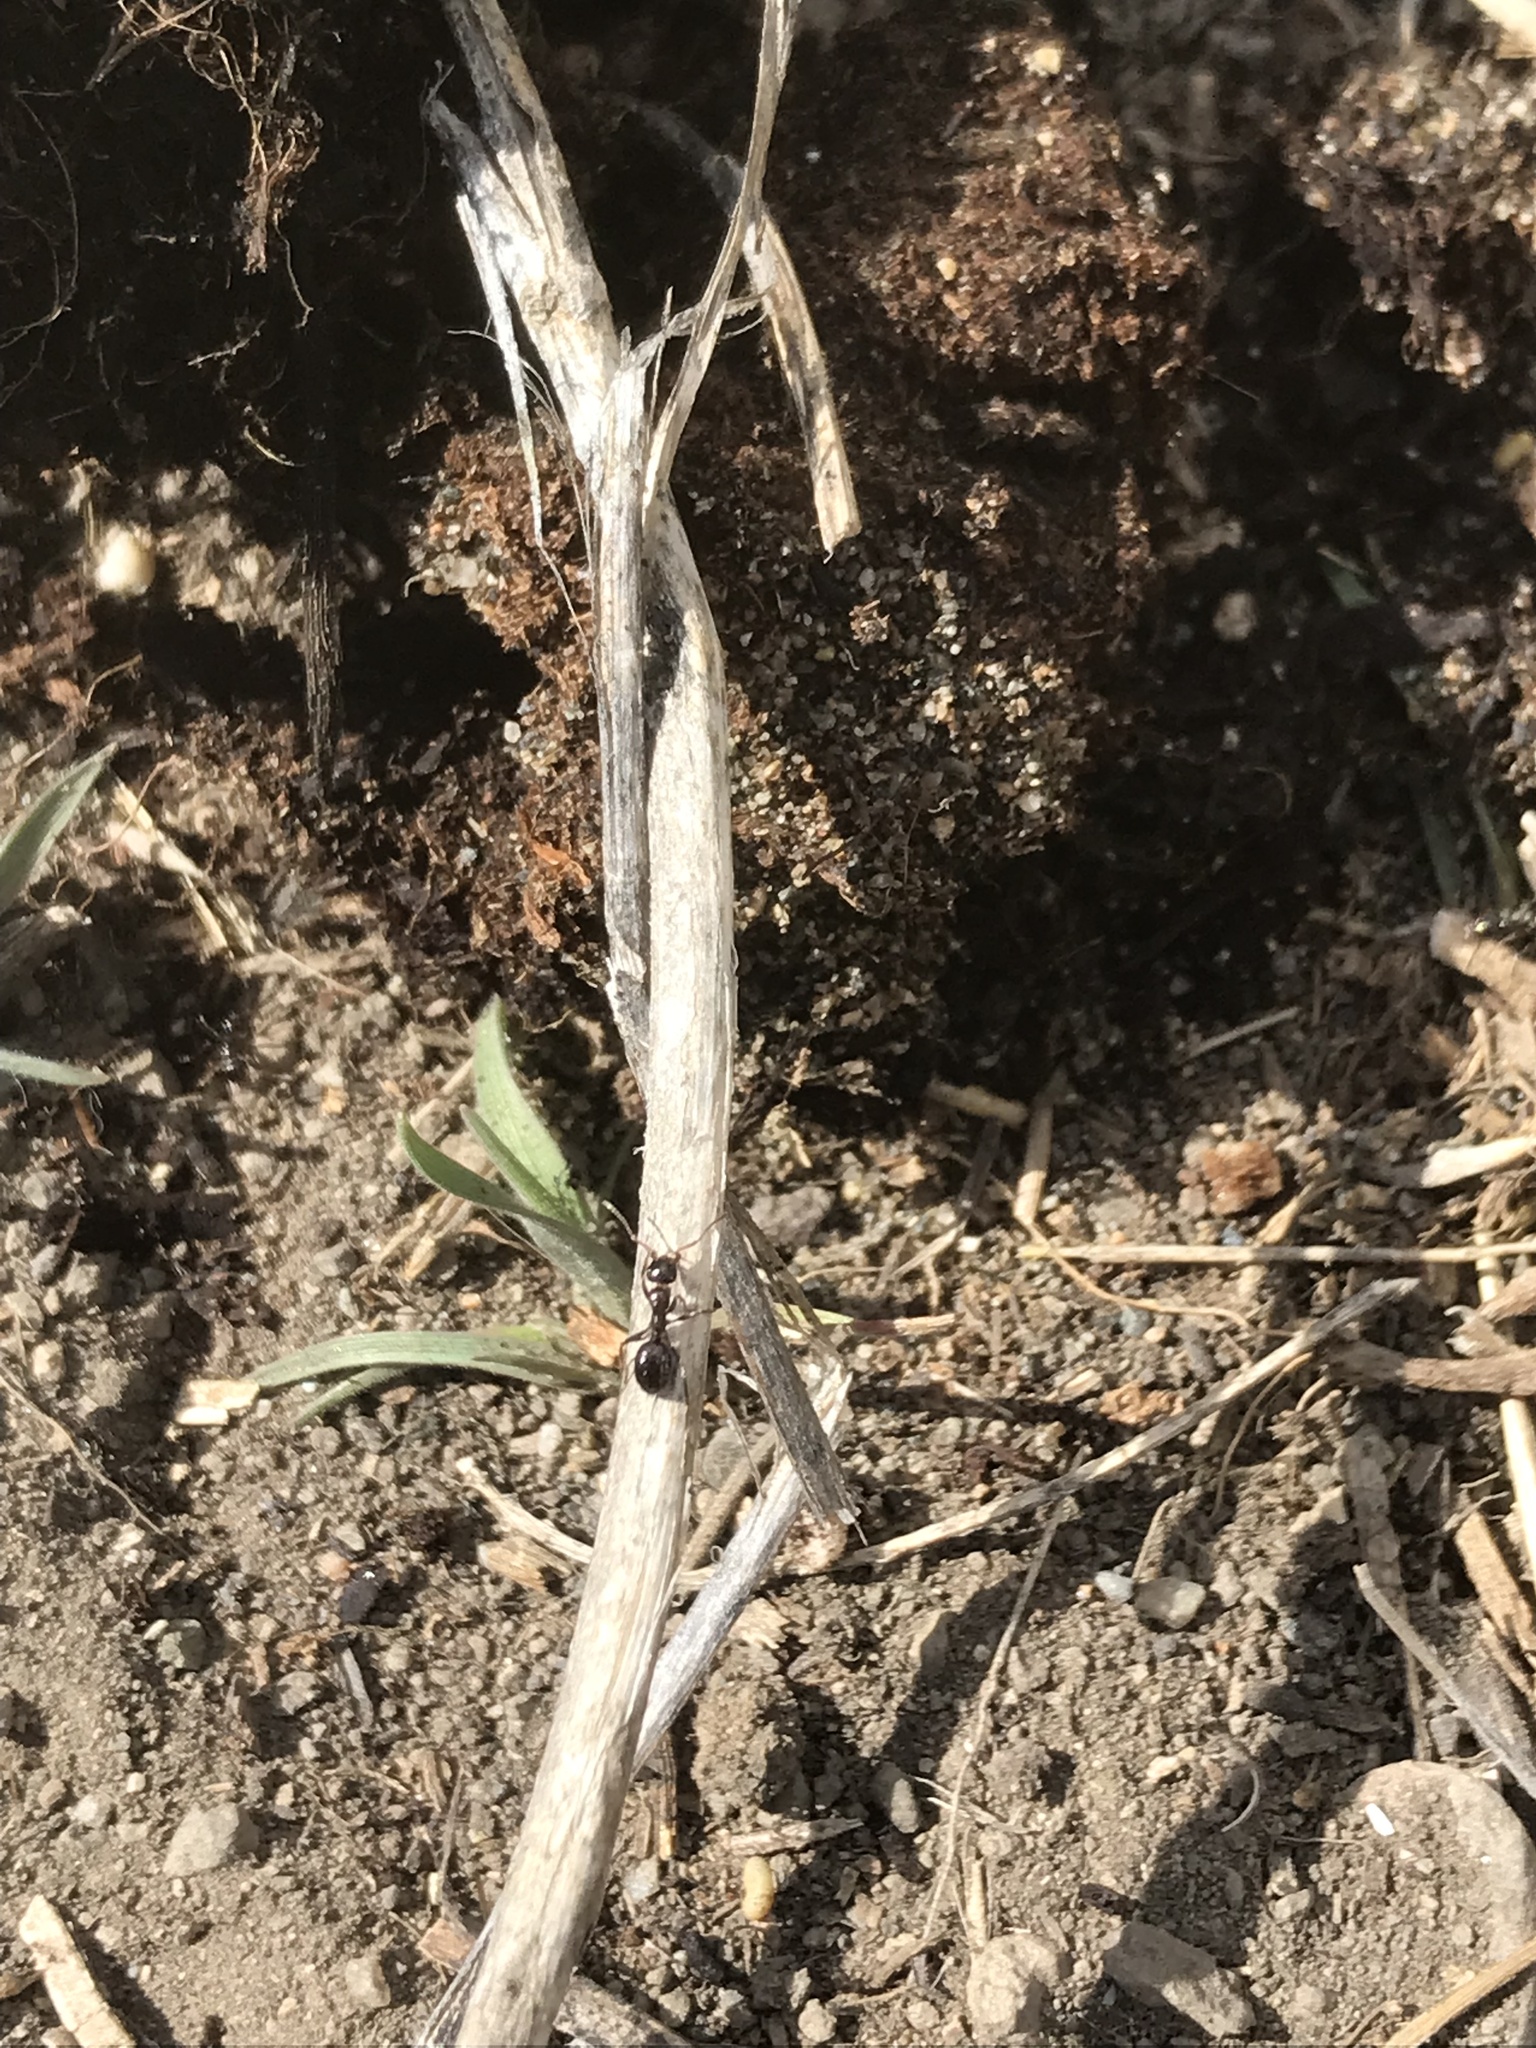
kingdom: Animalia
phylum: Arthropoda
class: Insecta
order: Hymenoptera
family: Formicidae
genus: Formica
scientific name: Formica
